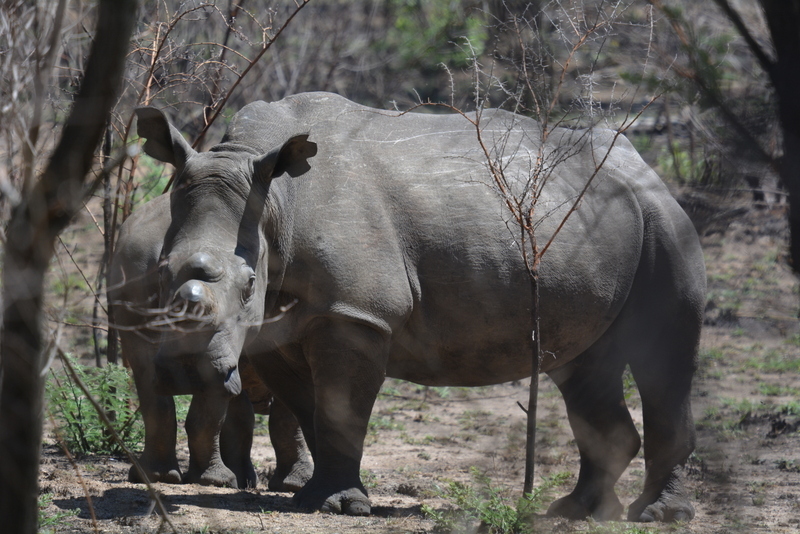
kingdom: Animalia
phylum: Chordata
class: Mammalia
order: Perissodactyla
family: Rhinocerotidae
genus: Ceratotherium
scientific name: Ceratotherium simum
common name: White rhinoceros
